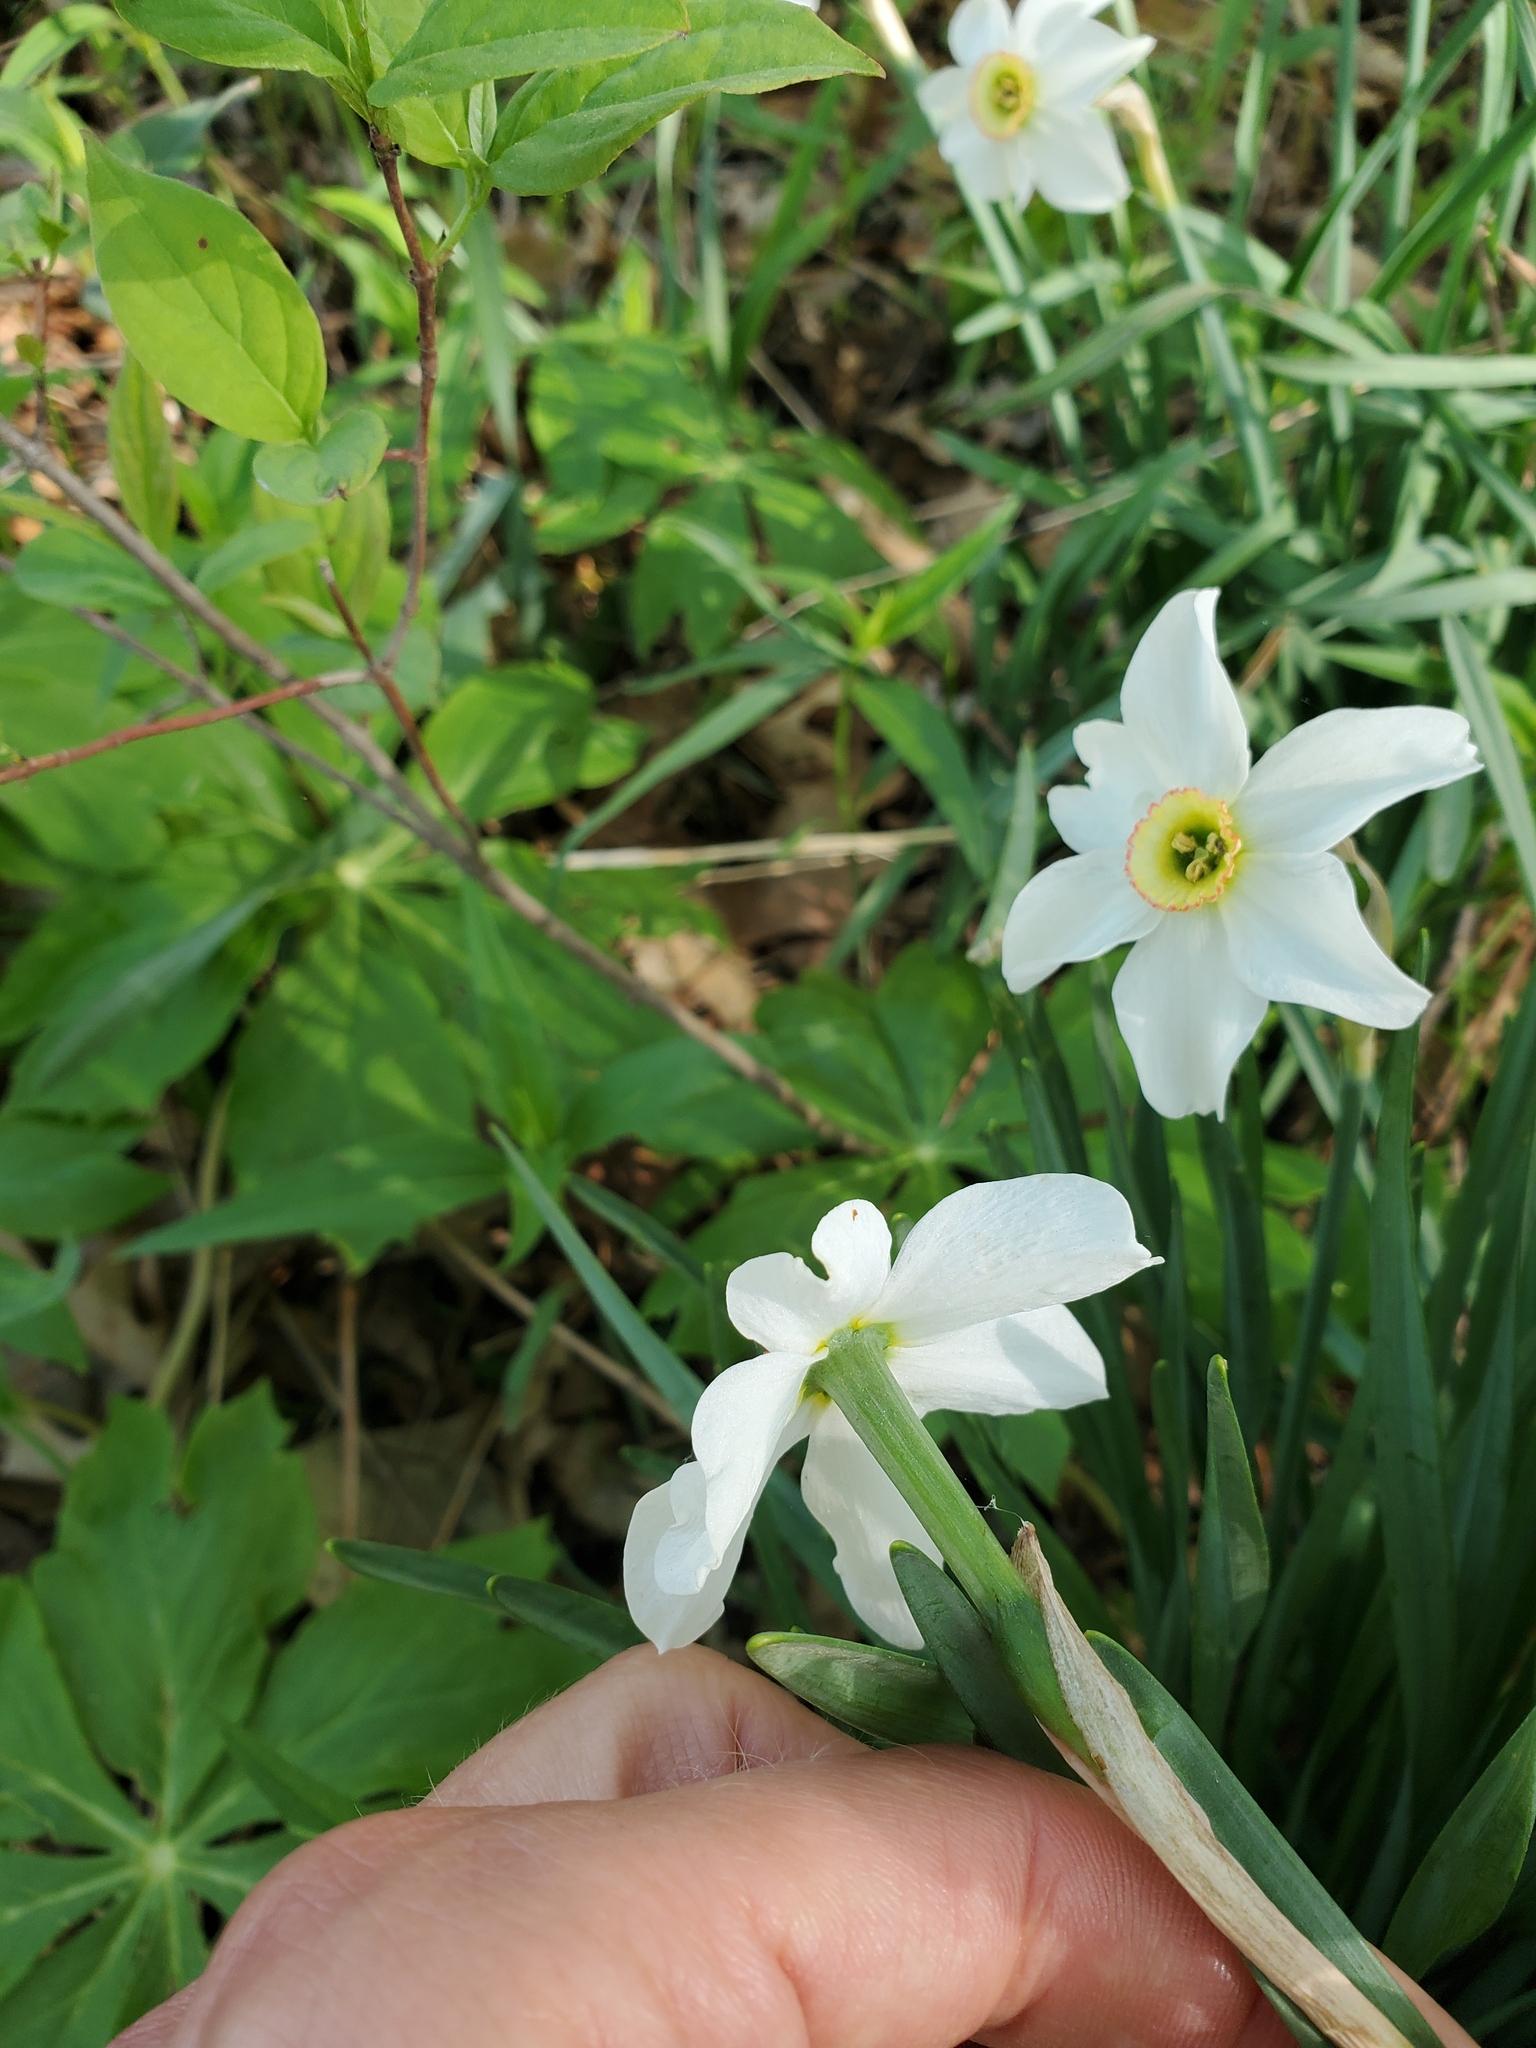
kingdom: Plantae
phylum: Tracheophyta
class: Liliopsida
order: Asparagales
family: Amaryllidaceae
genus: Narcissus
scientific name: Narcissus poeticus
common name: Pheasant's-eye daffodil
